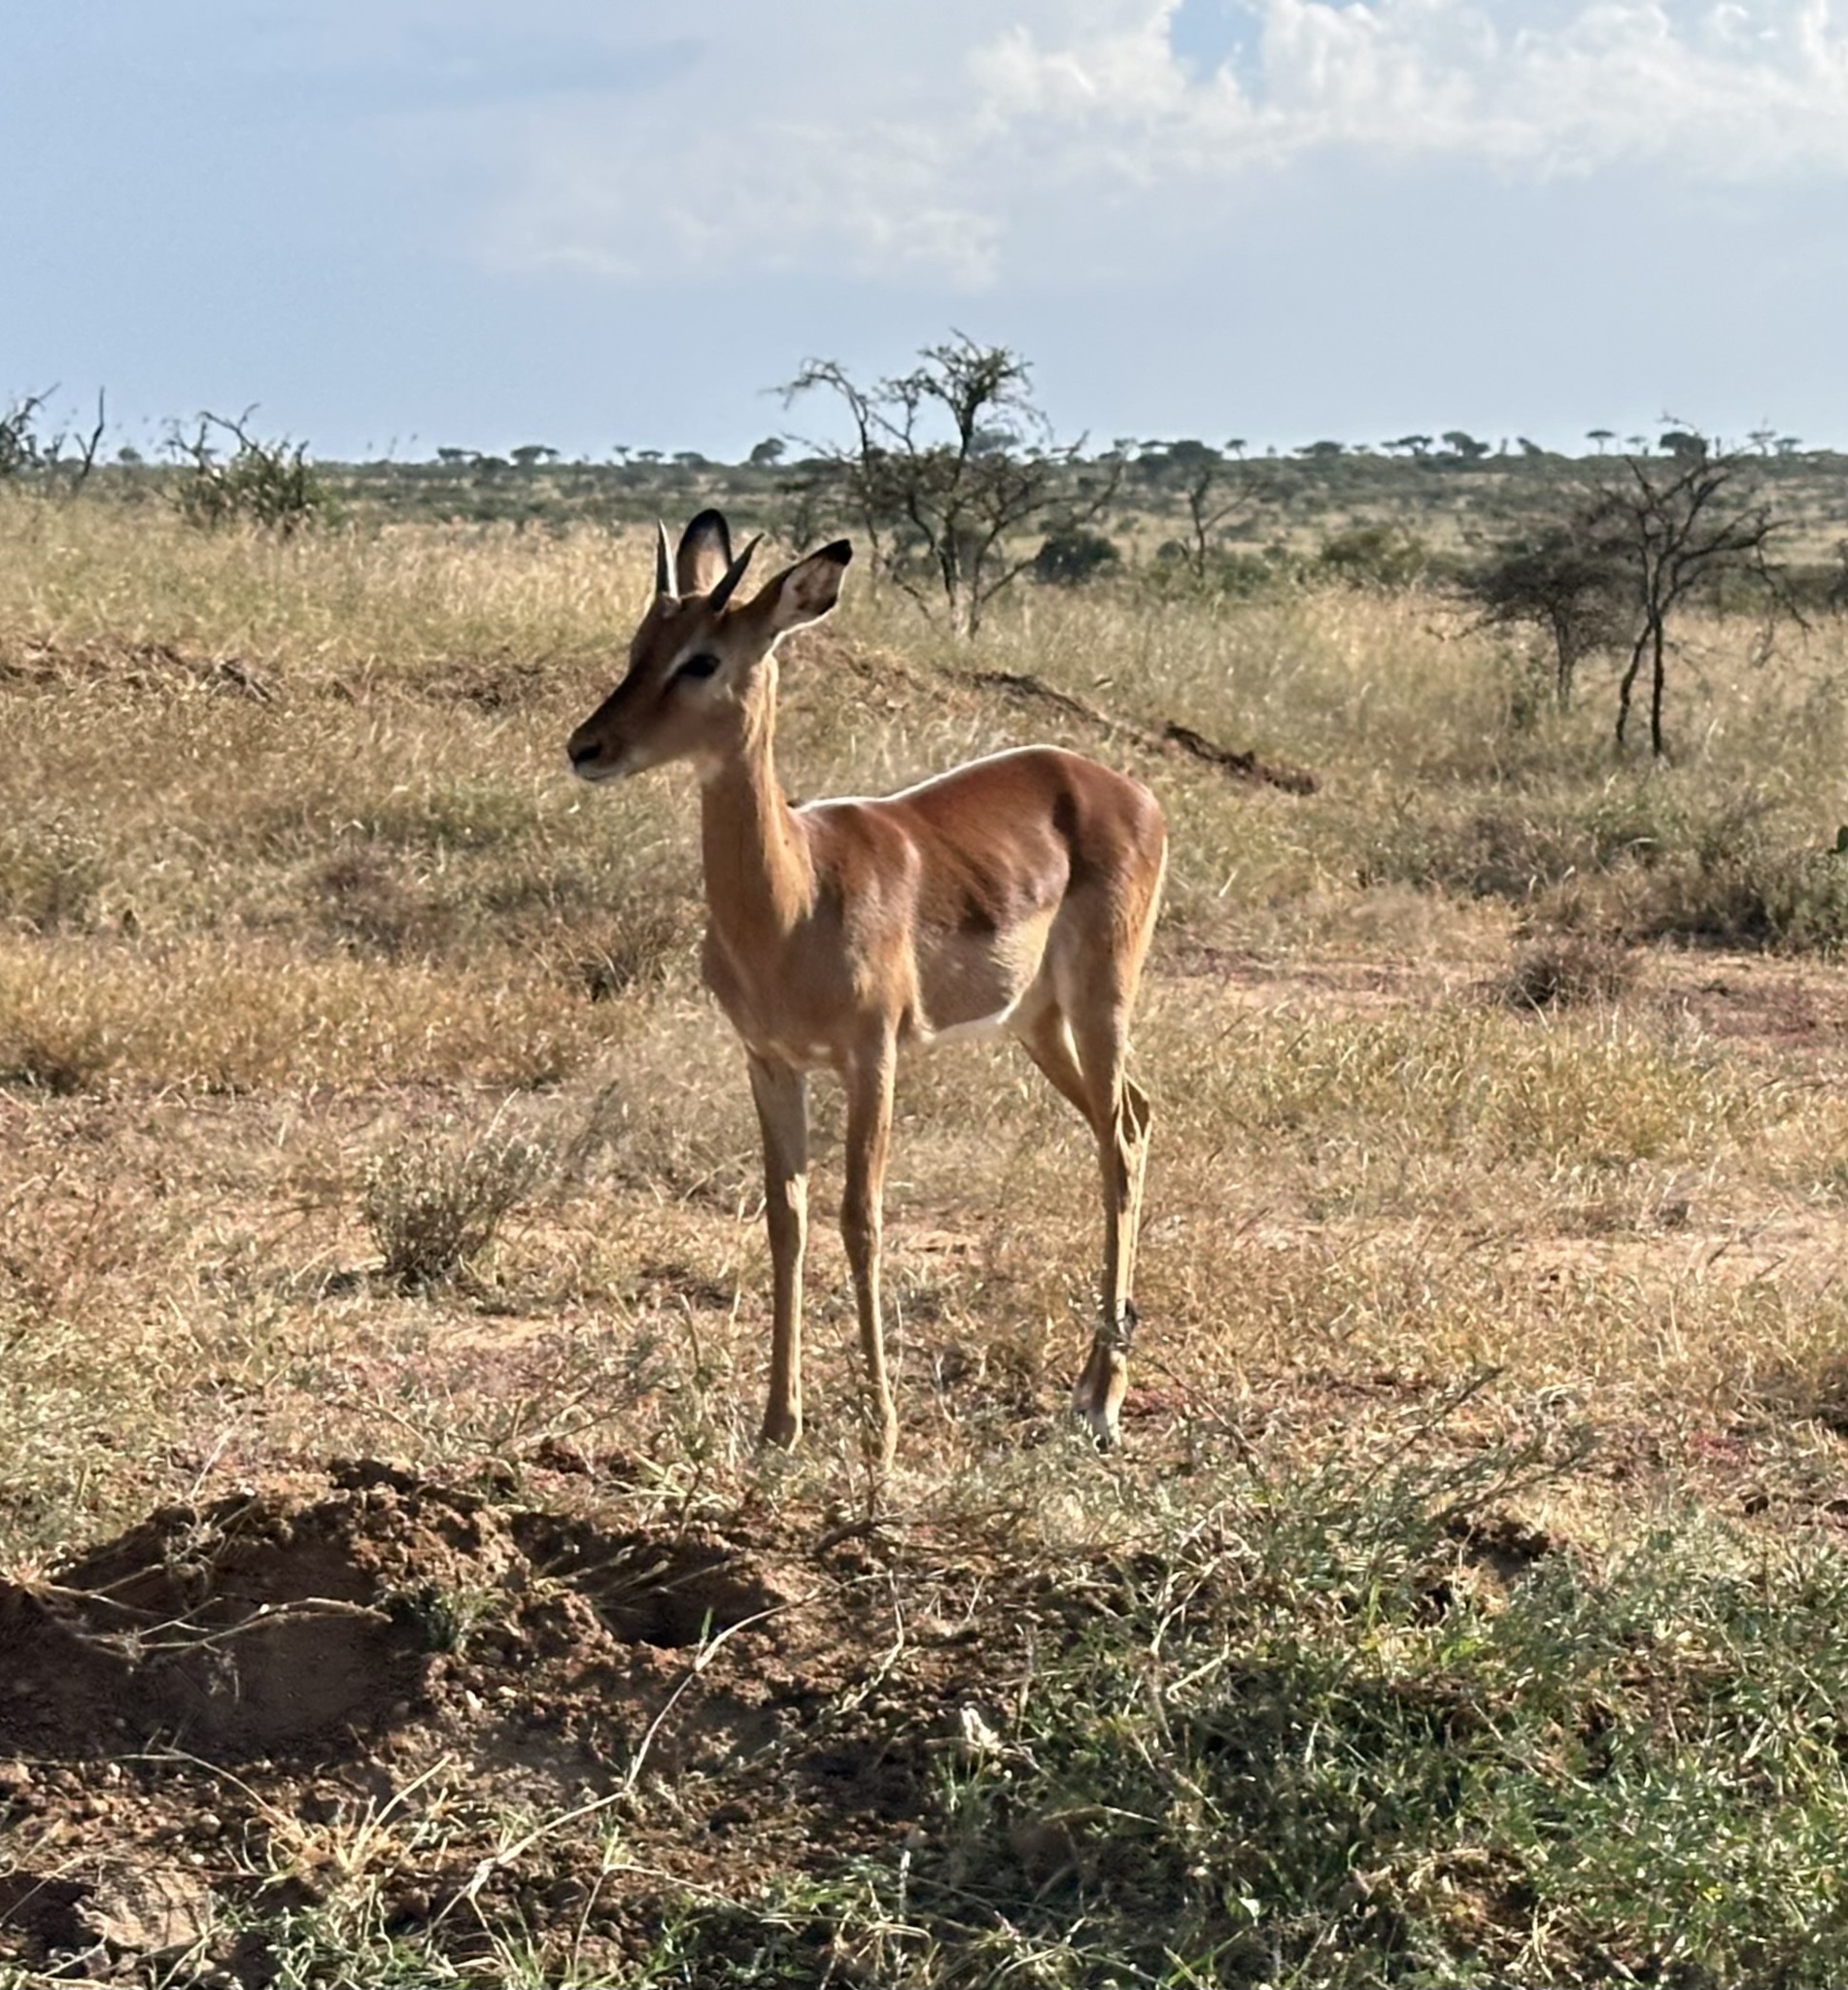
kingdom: Animalia
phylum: Chordata
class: Mammalia
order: Artiodactyla
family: Bovidae
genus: Aepyceros
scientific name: Aepyceros melampus
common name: Impala
